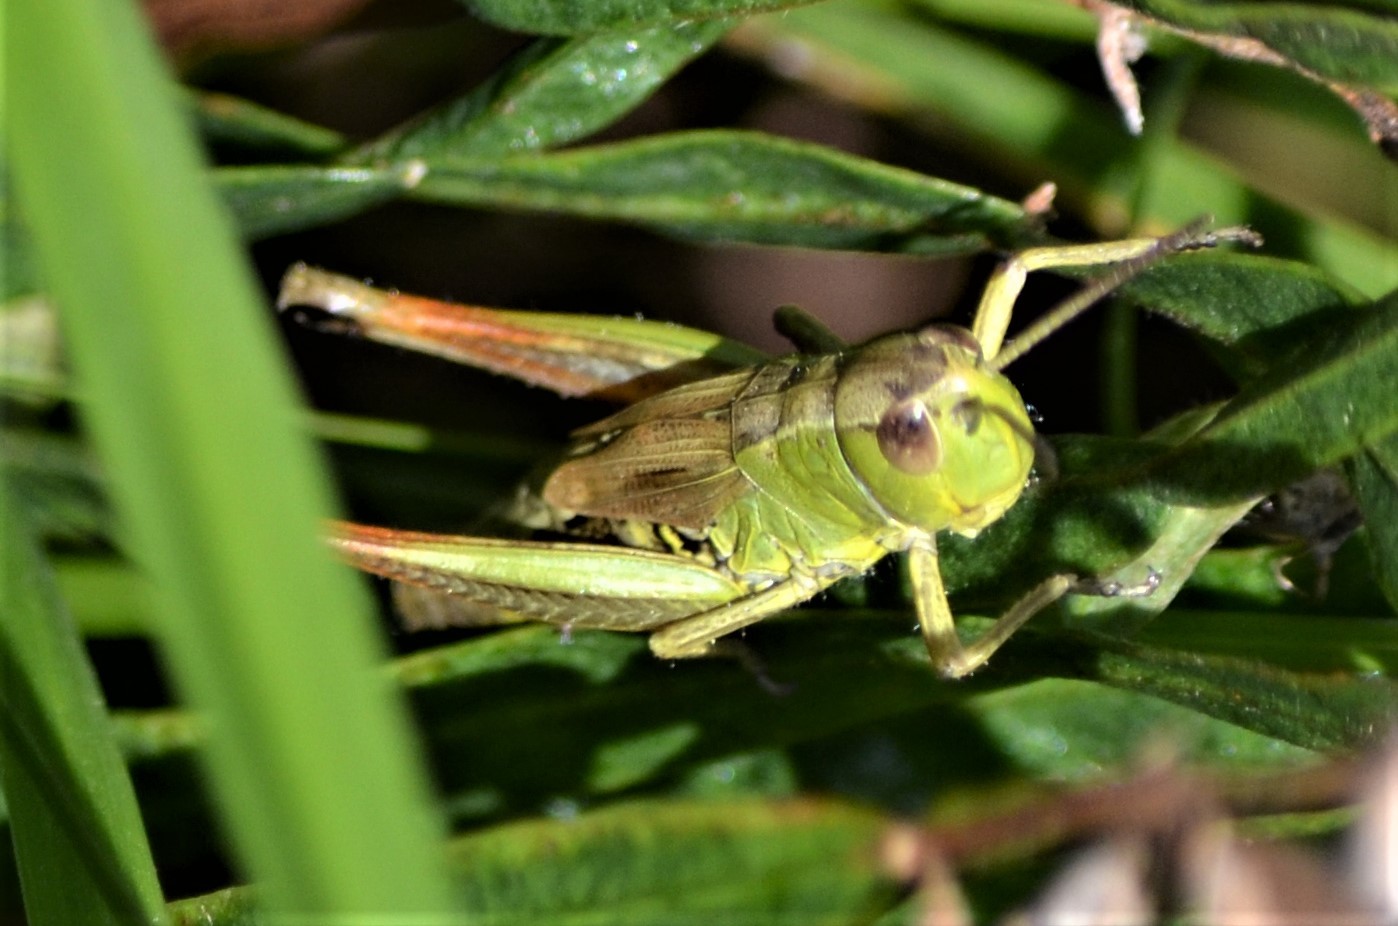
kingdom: Animalia
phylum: Arthropoda
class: Insecta
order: Orthoptera
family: Acrididae
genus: Pseudochorthippus
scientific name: Pseudochorthippus parallelus
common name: Meadow grasshopper
